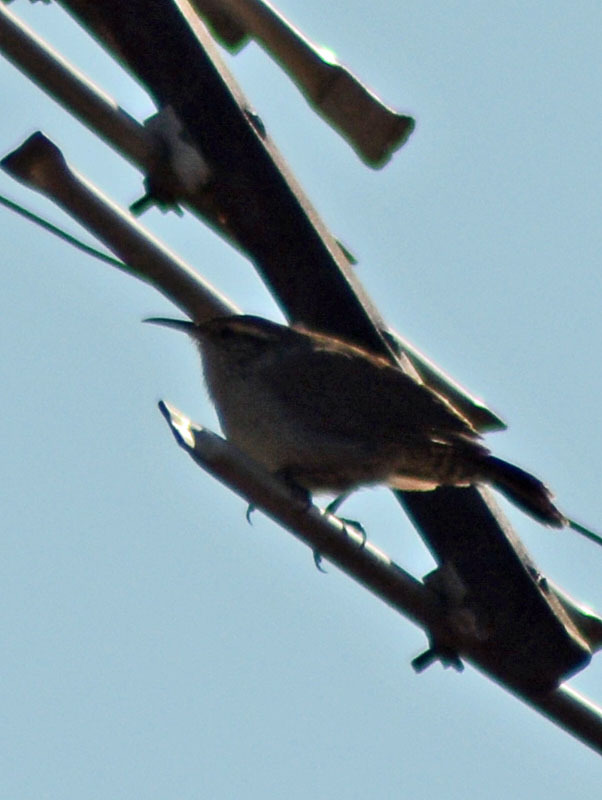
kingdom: Animalia
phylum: Chordata
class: Aves
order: Passeriformes
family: Troglodytidae
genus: Thryomanes
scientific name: Thryomanes bewickii
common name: Bewick's wren
